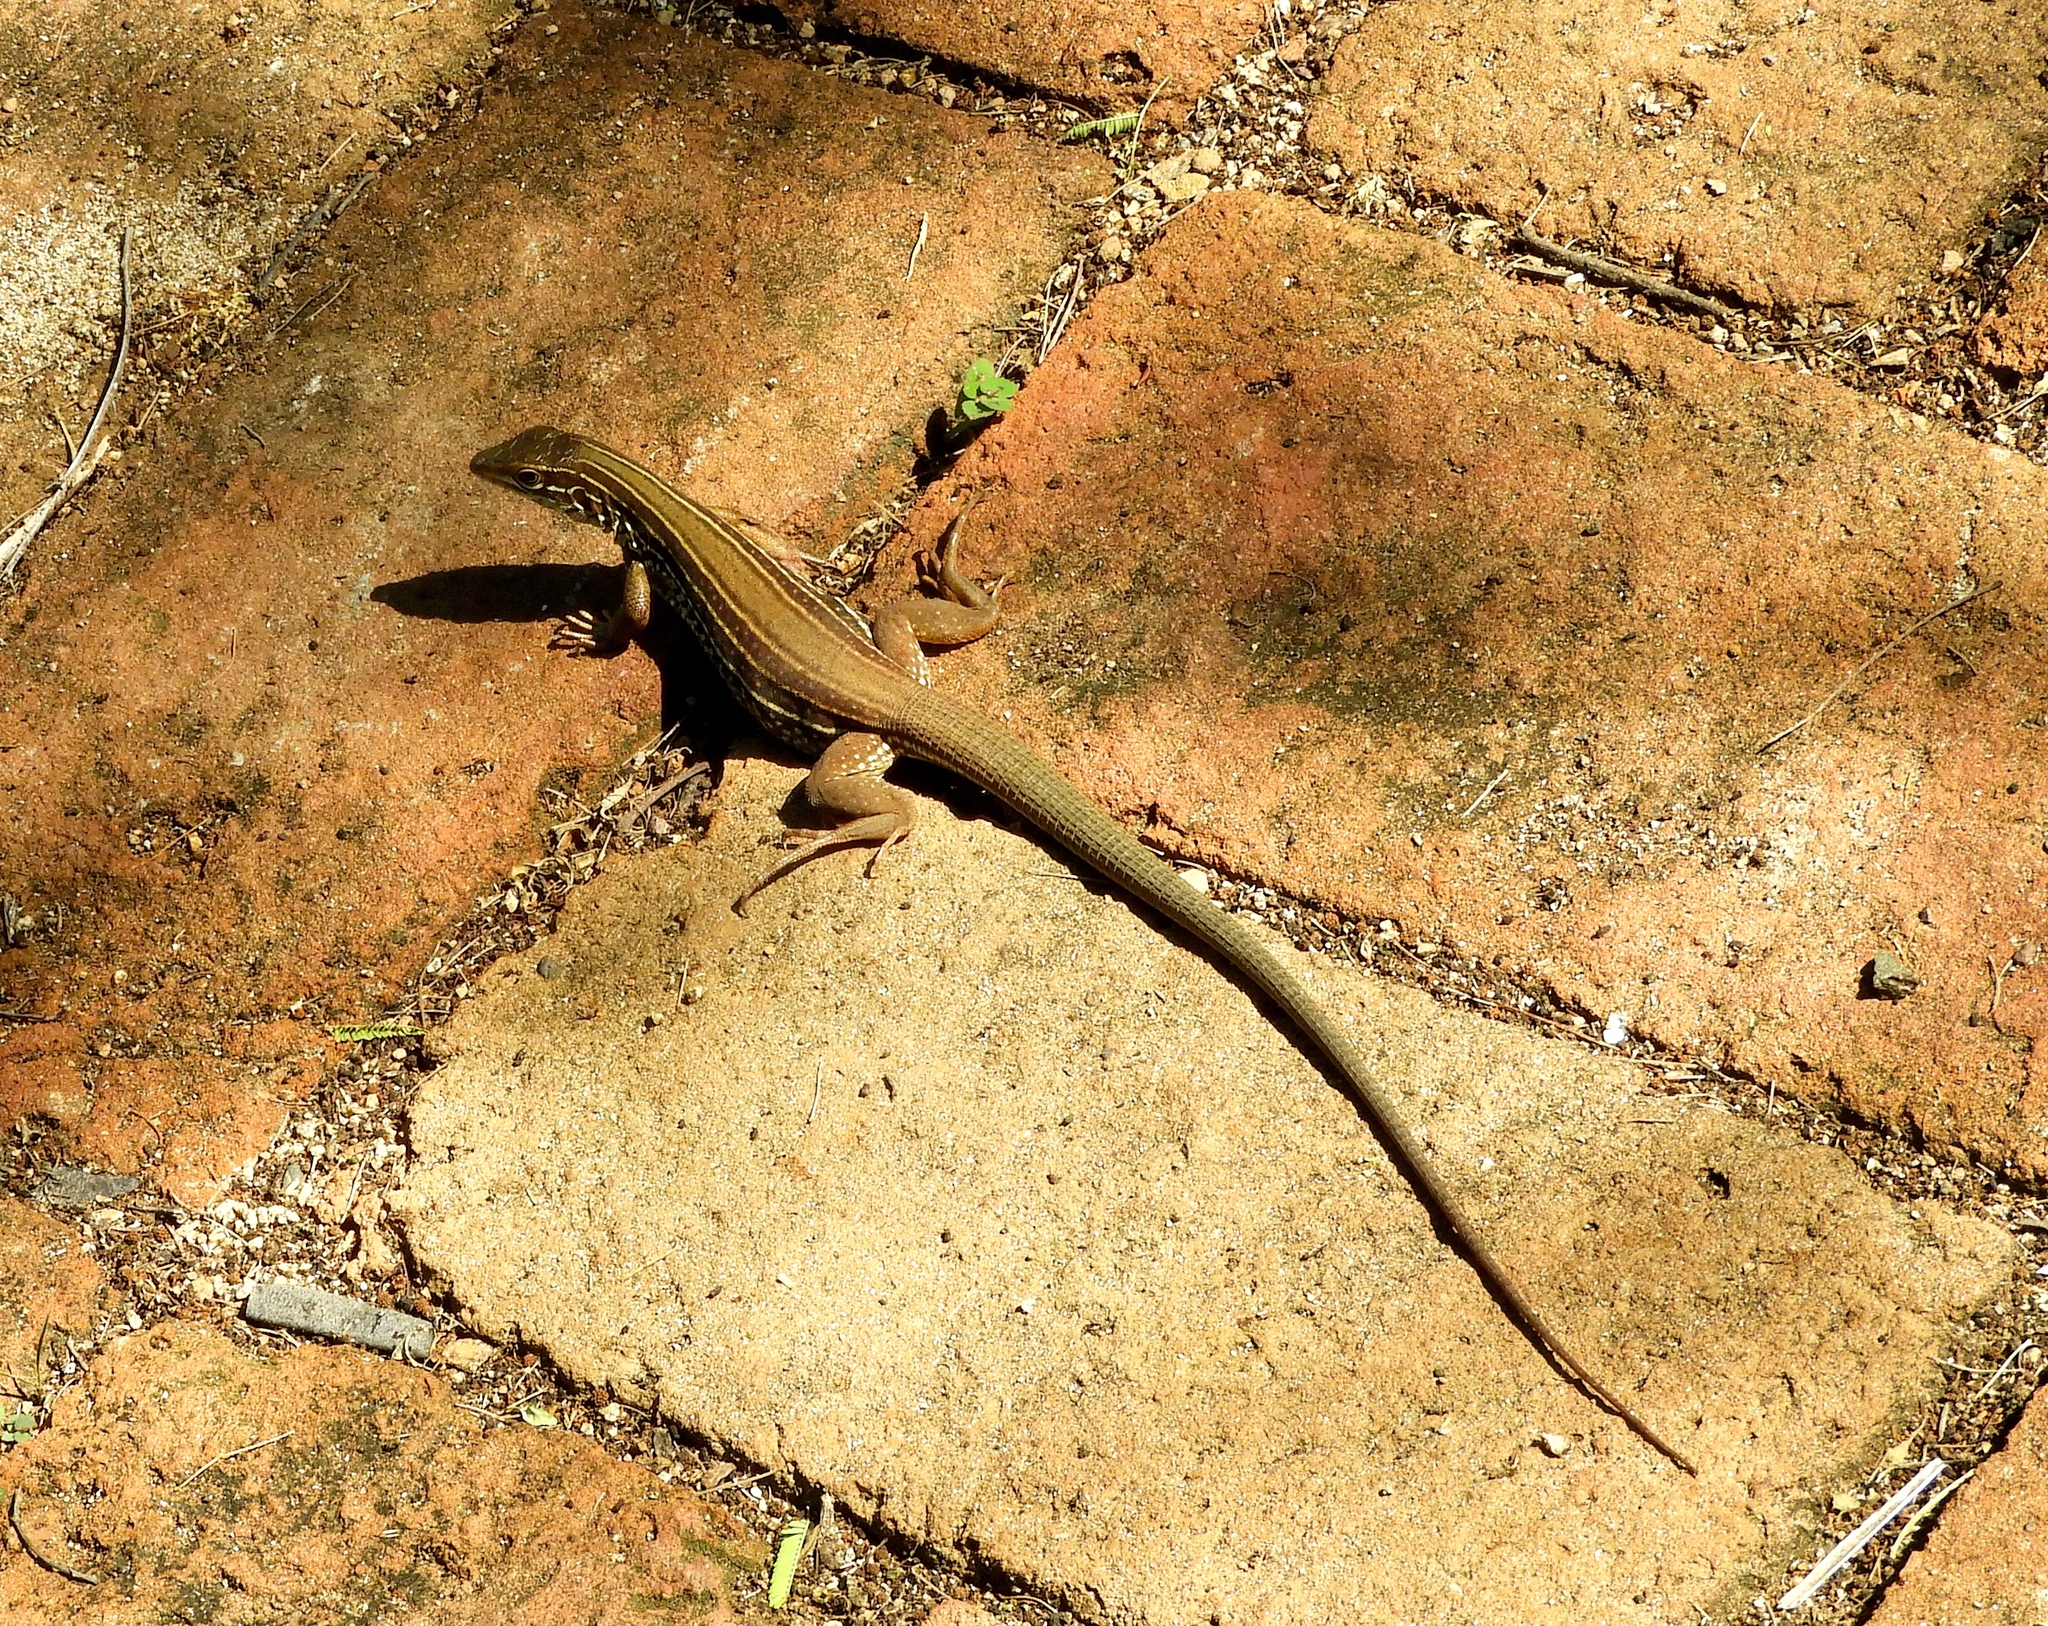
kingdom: Animalia
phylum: Chordata
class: Squamata
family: Teiidae
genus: Aspidoscelis
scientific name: Aspidoscelis
